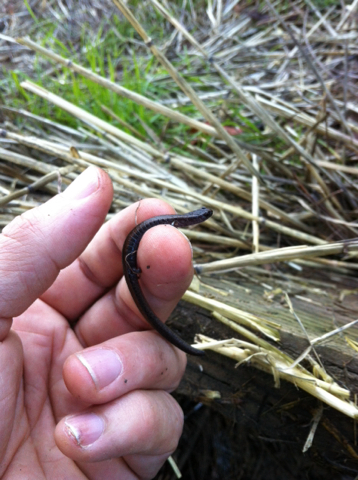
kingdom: Animalia
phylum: Chordata
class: Amphibia
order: Caudata
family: Plethodontidae
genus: Batrachoseps
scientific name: Batrachoseps attenuatus
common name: California slender salamander
